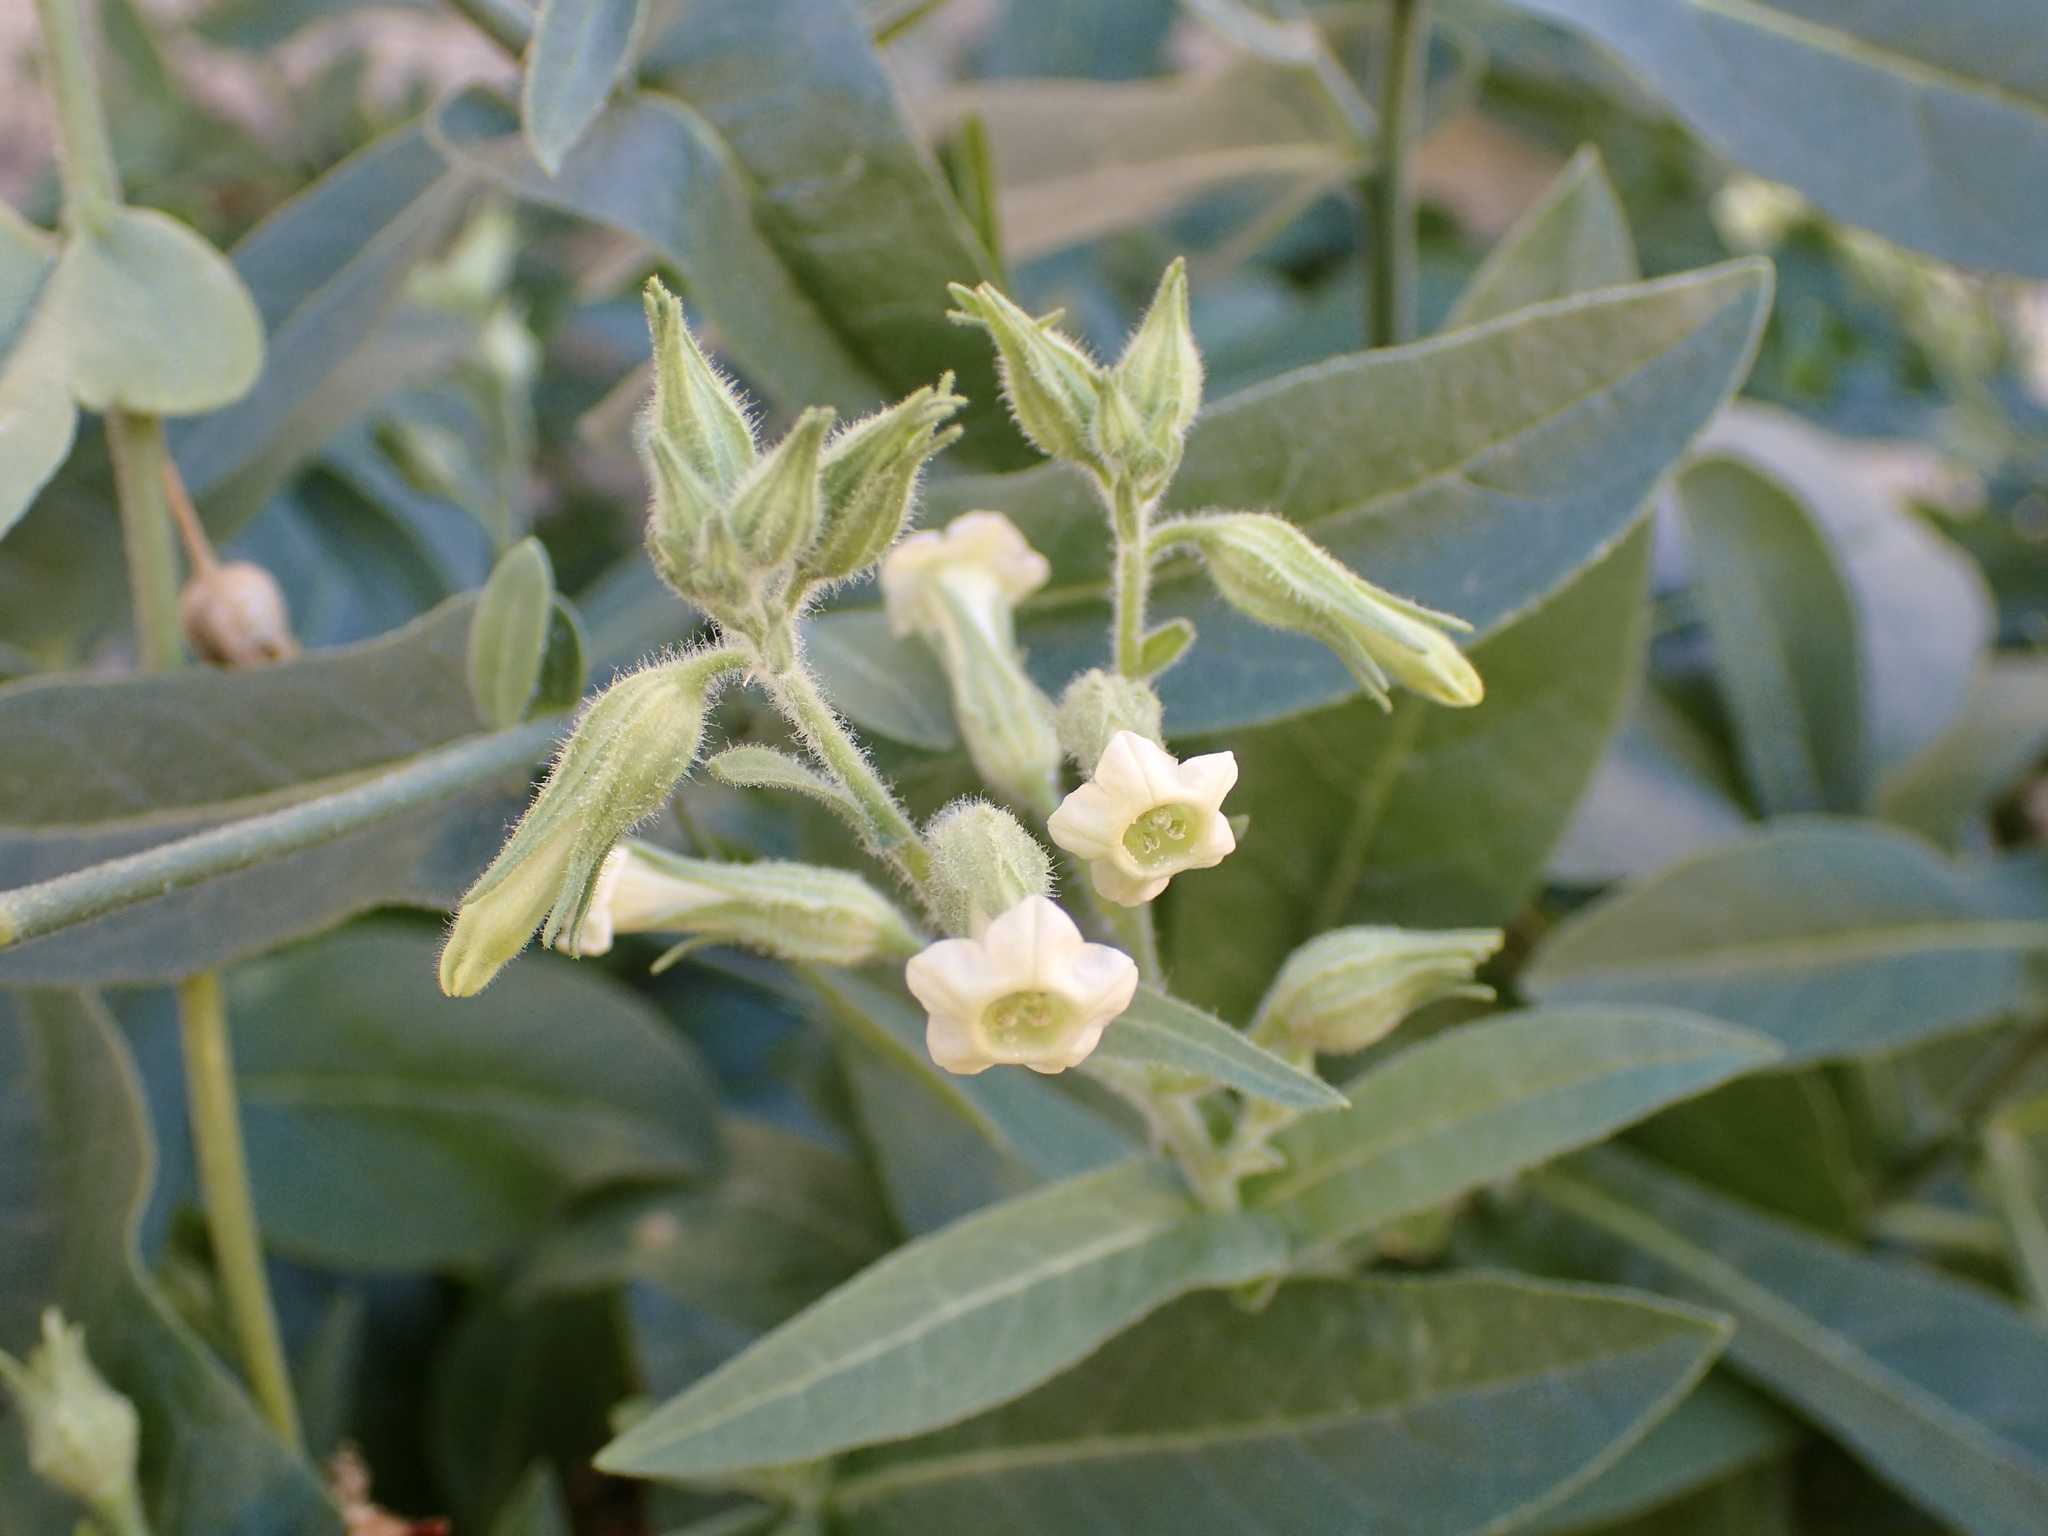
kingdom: Plantae
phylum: Tracheophyta
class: Magnoliopsida
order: Solanales
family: Solanaceae
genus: Nicotiana
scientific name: Nicotiana obtusifolia
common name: Desert tobacco
